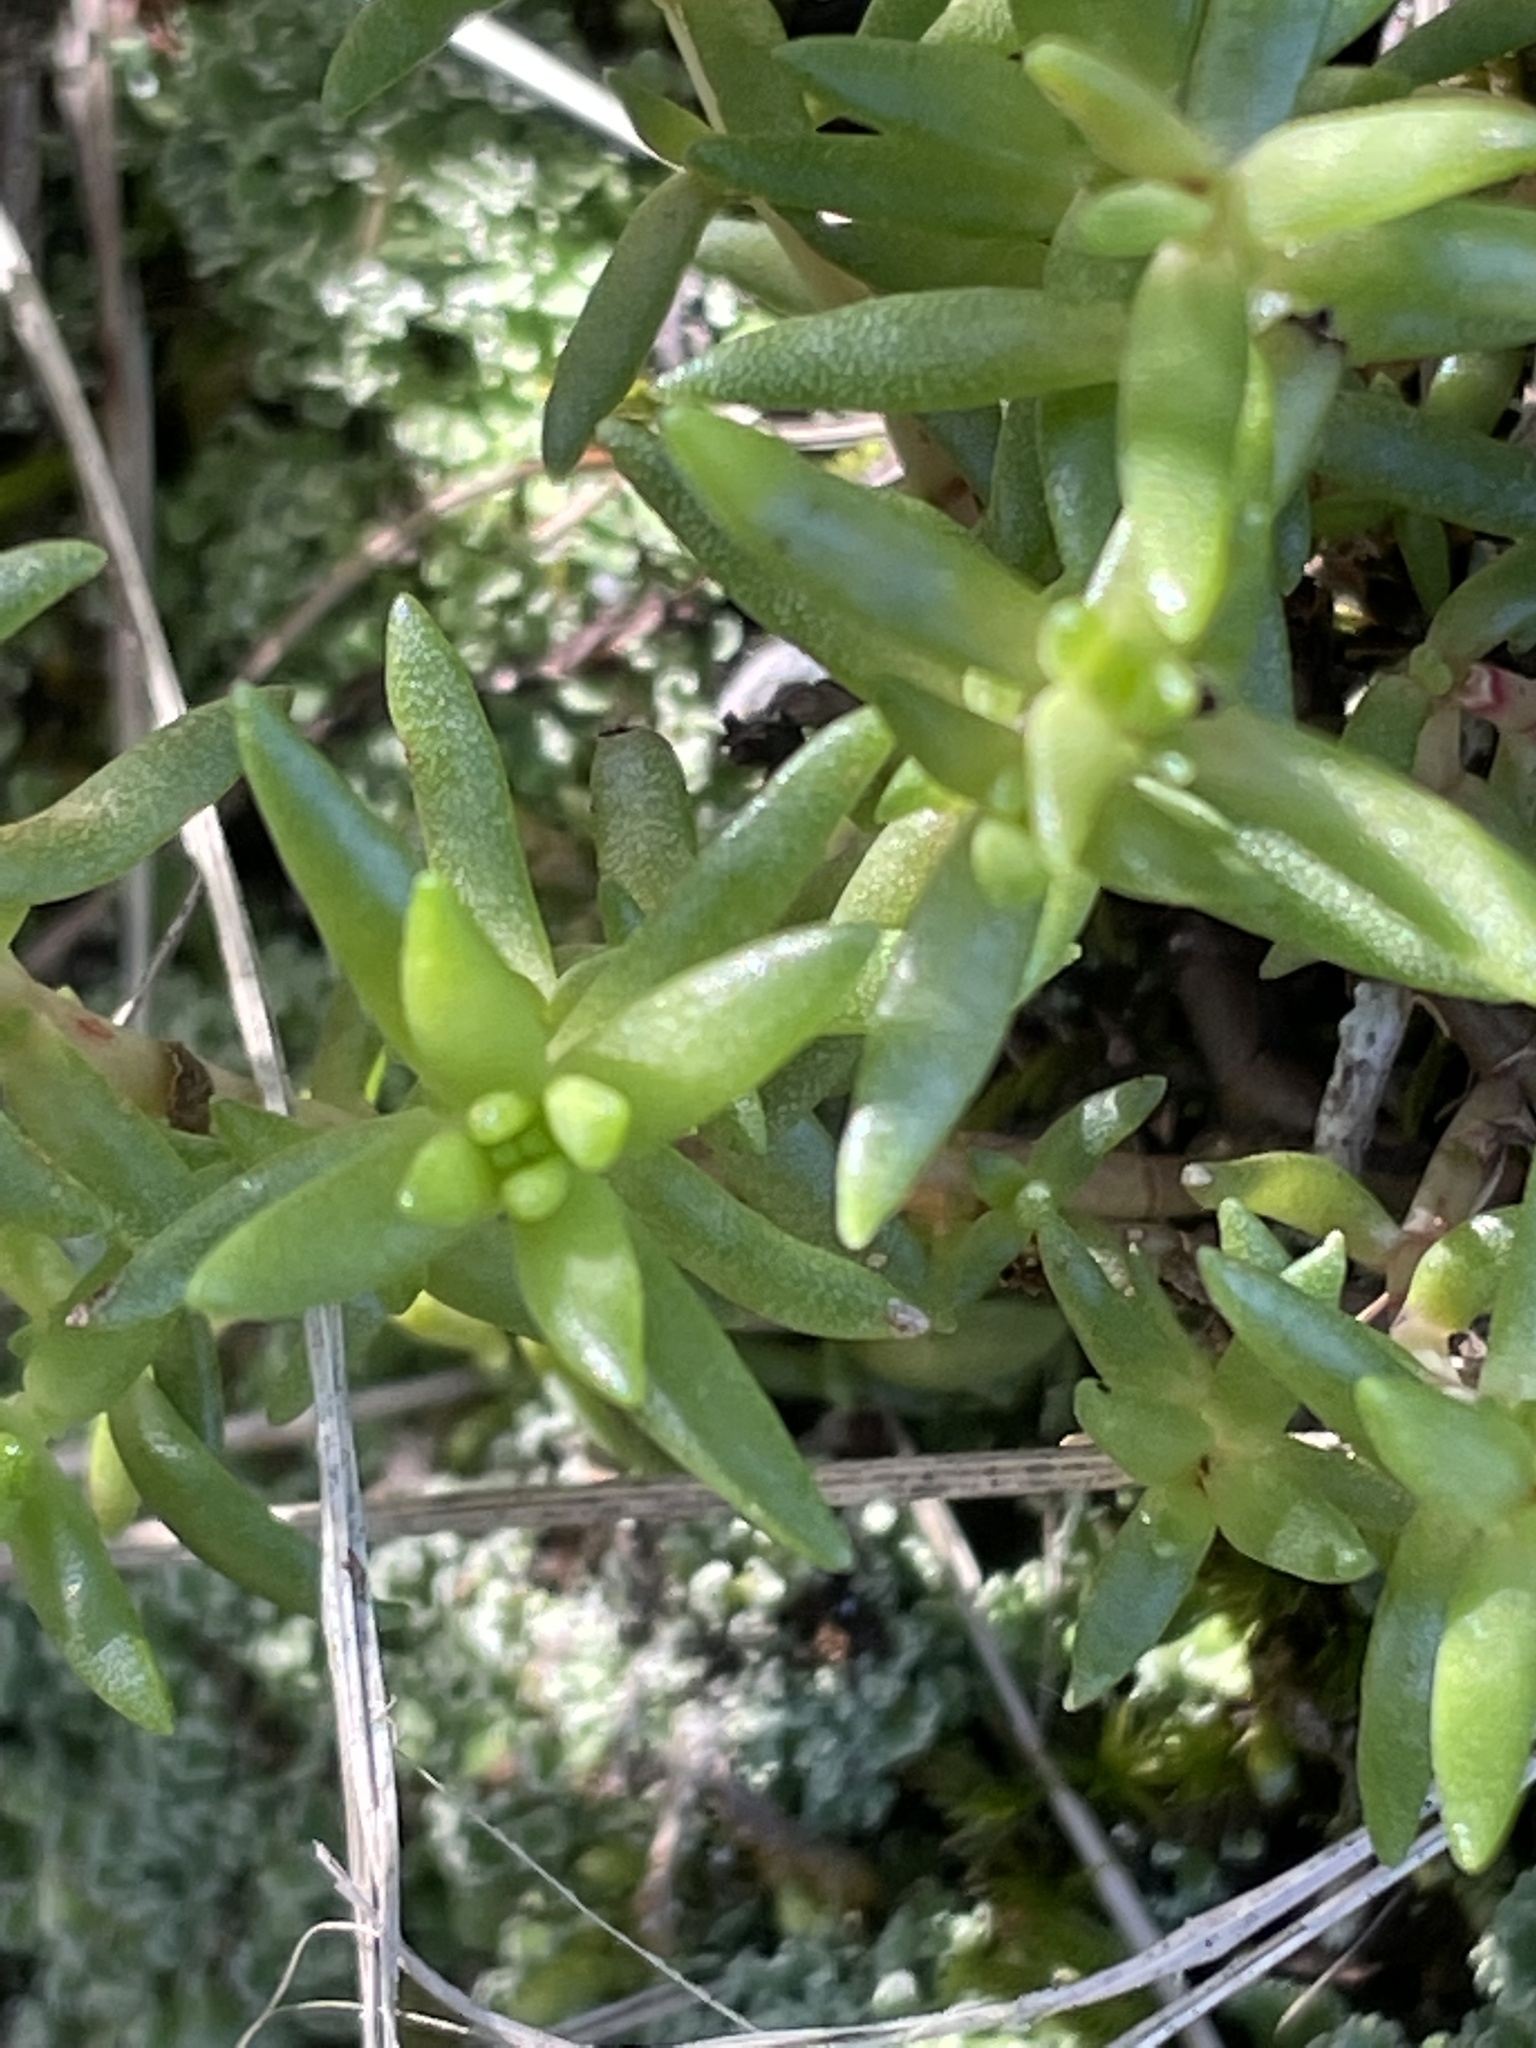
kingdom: Plantae
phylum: Tracheophyta
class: Magnoliopsida
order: Saxifragales
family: Crassulaceae
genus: Crassula
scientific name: Crassula sieberiana
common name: Siberian pygmyweed
